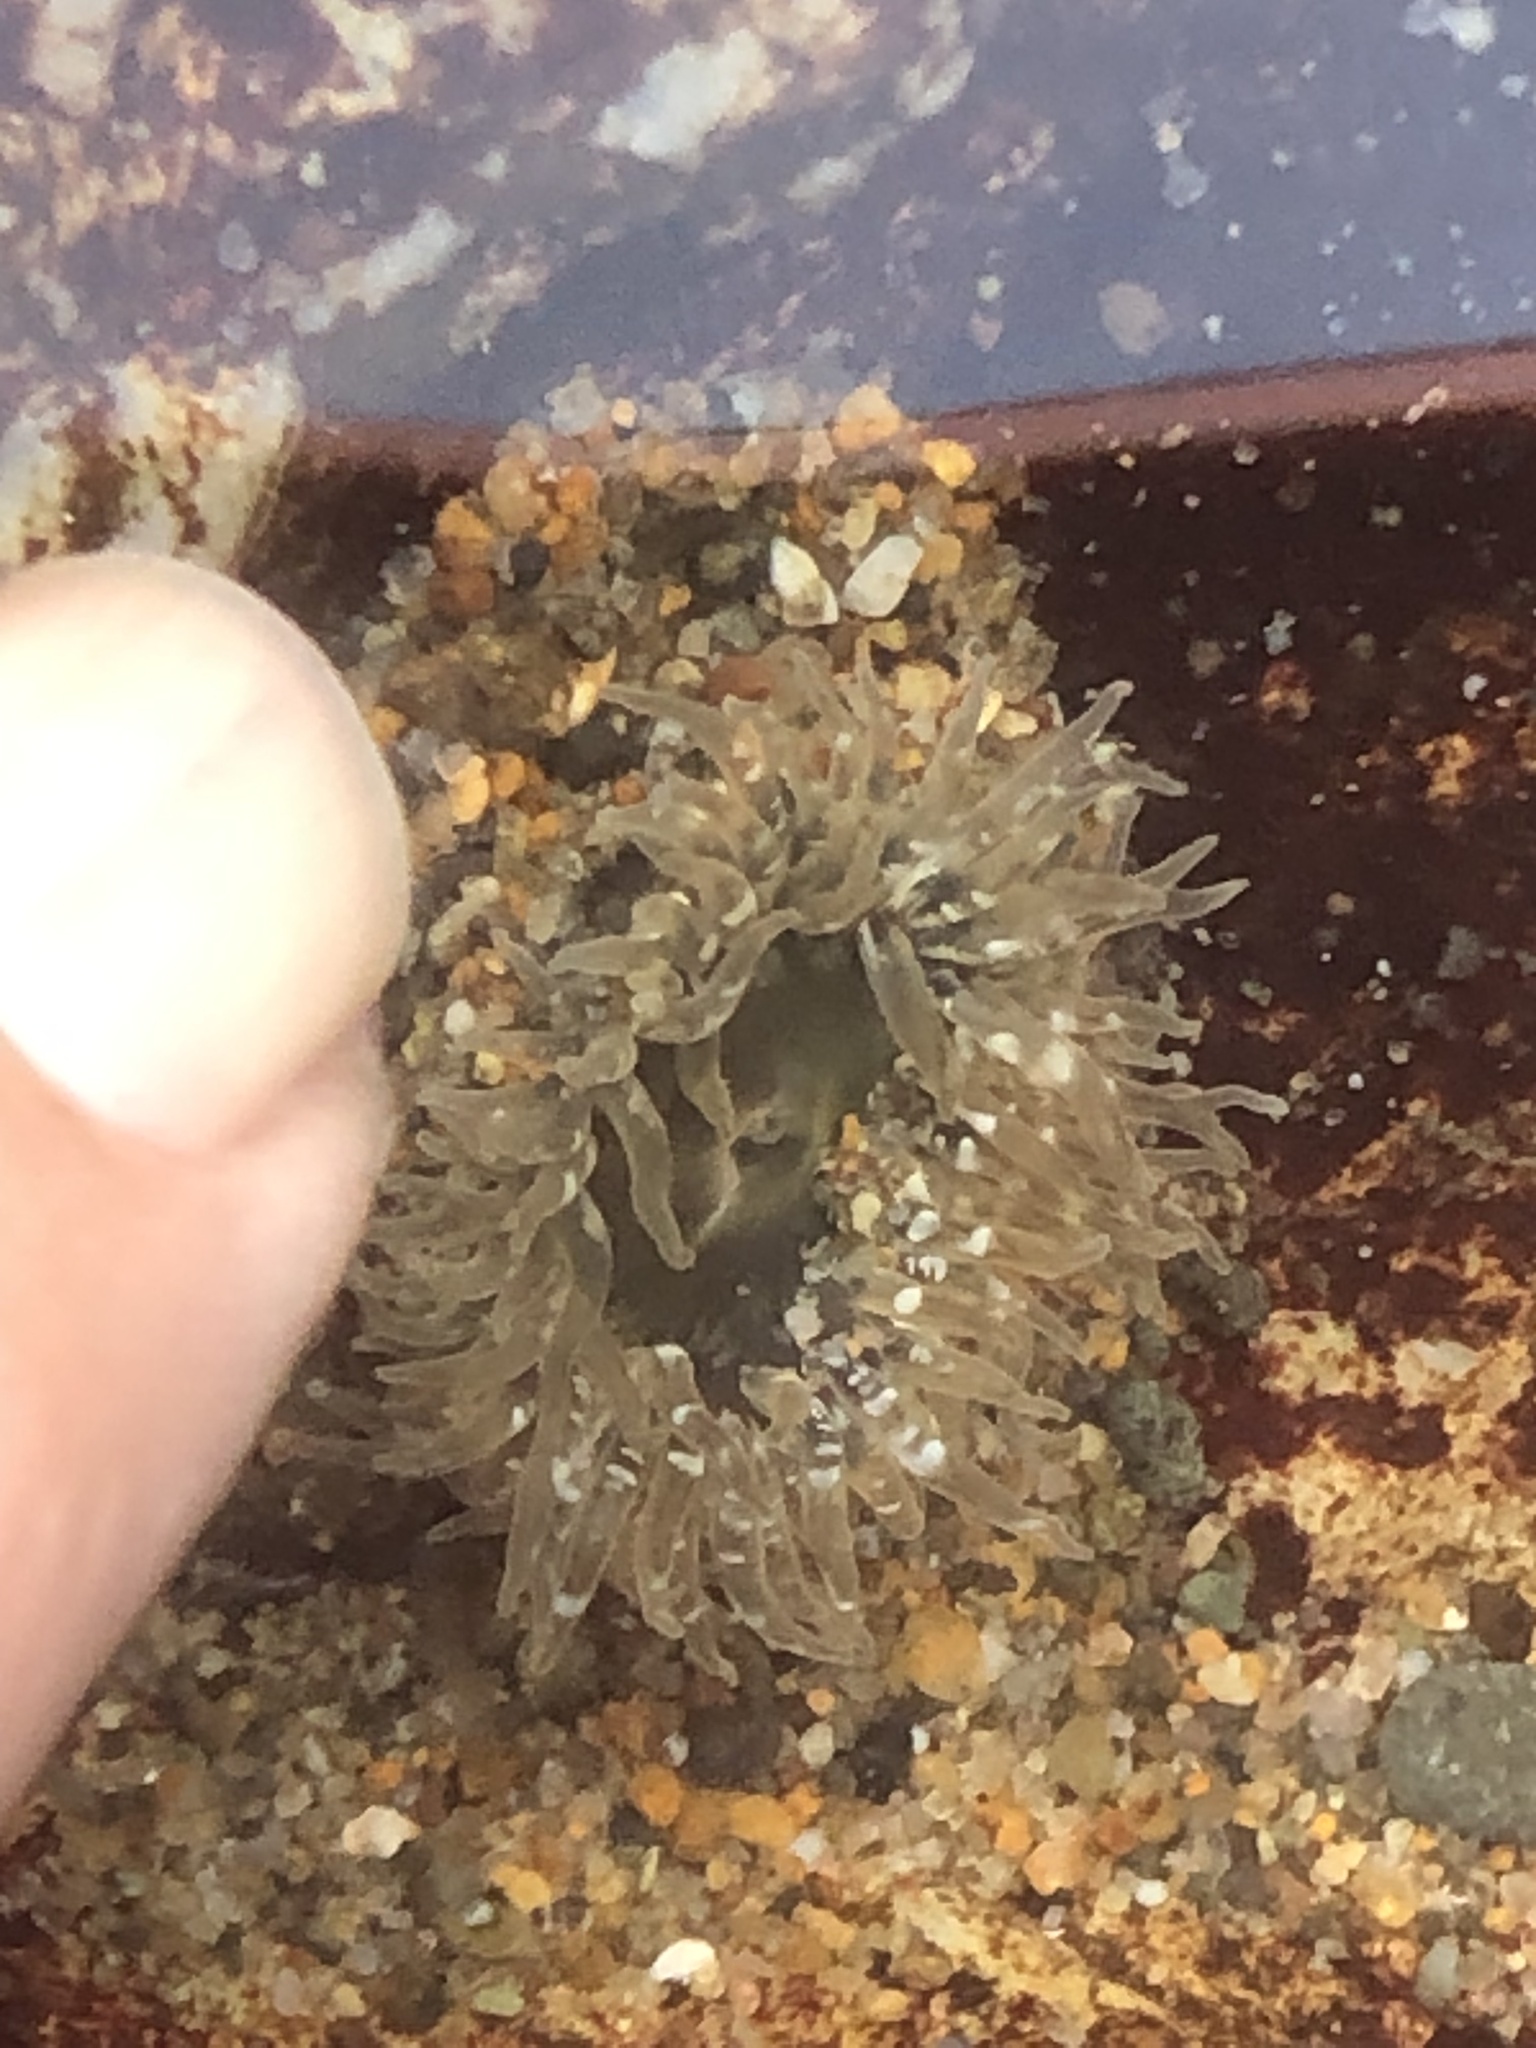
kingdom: Animalia
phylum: Cnidaria
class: Anthozoa
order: Actiniaria
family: Actiniidae
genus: Anthopleura
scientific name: Anthopleura artemisia
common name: Buried sea anemone
